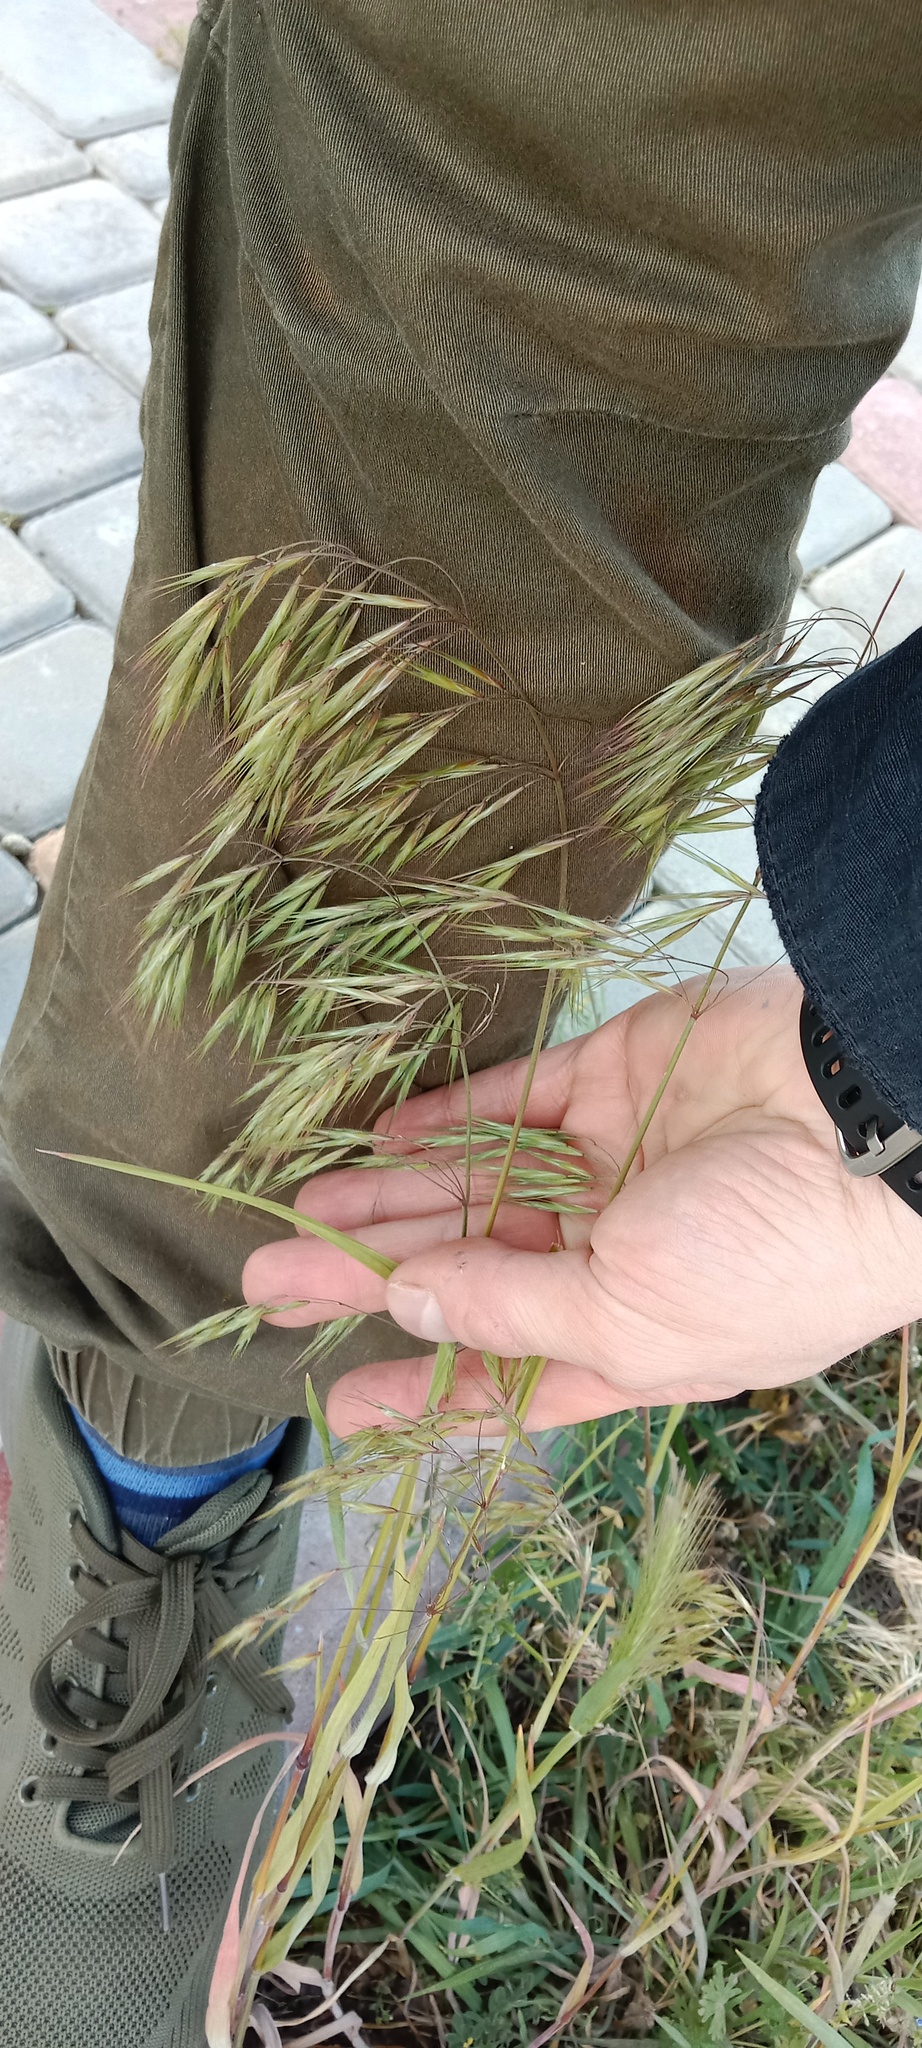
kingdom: Plantae
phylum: Tracheophyta
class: Liliopsida
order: Poales
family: Poaceae
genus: Bromus
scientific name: Bromus tectorum
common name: Cheatgrass
